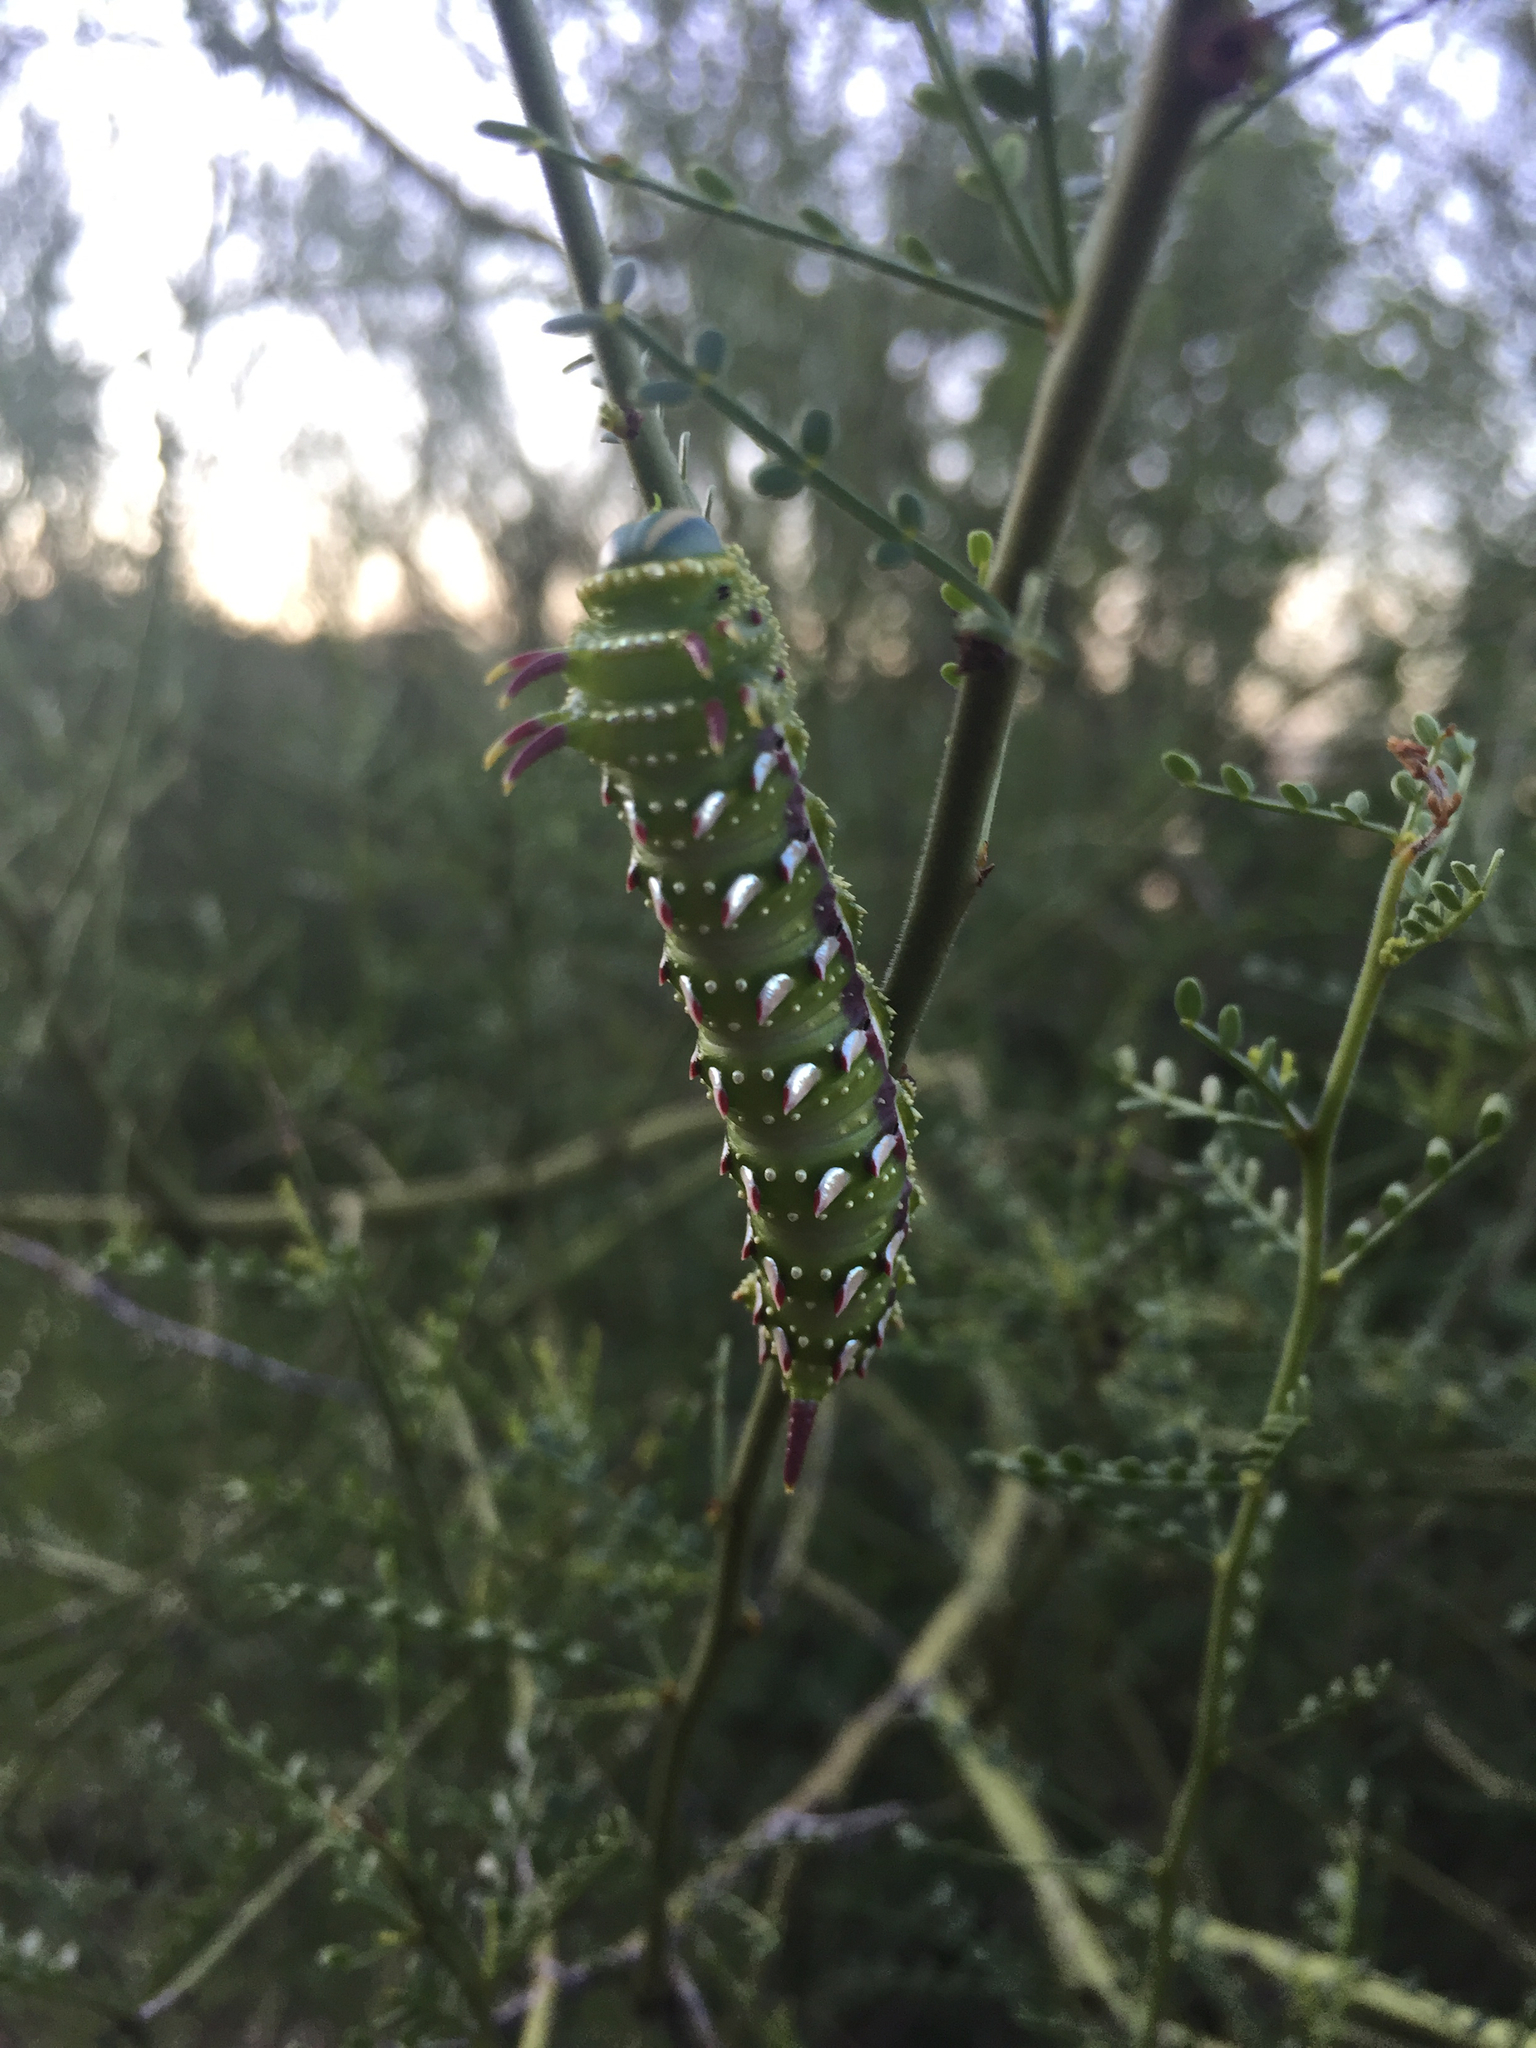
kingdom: Animalia
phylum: Arthropoda
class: Insecta
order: Lepidoptera
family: Saturniidae
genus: Syssphinx
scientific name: Syssphinx hubbardi
